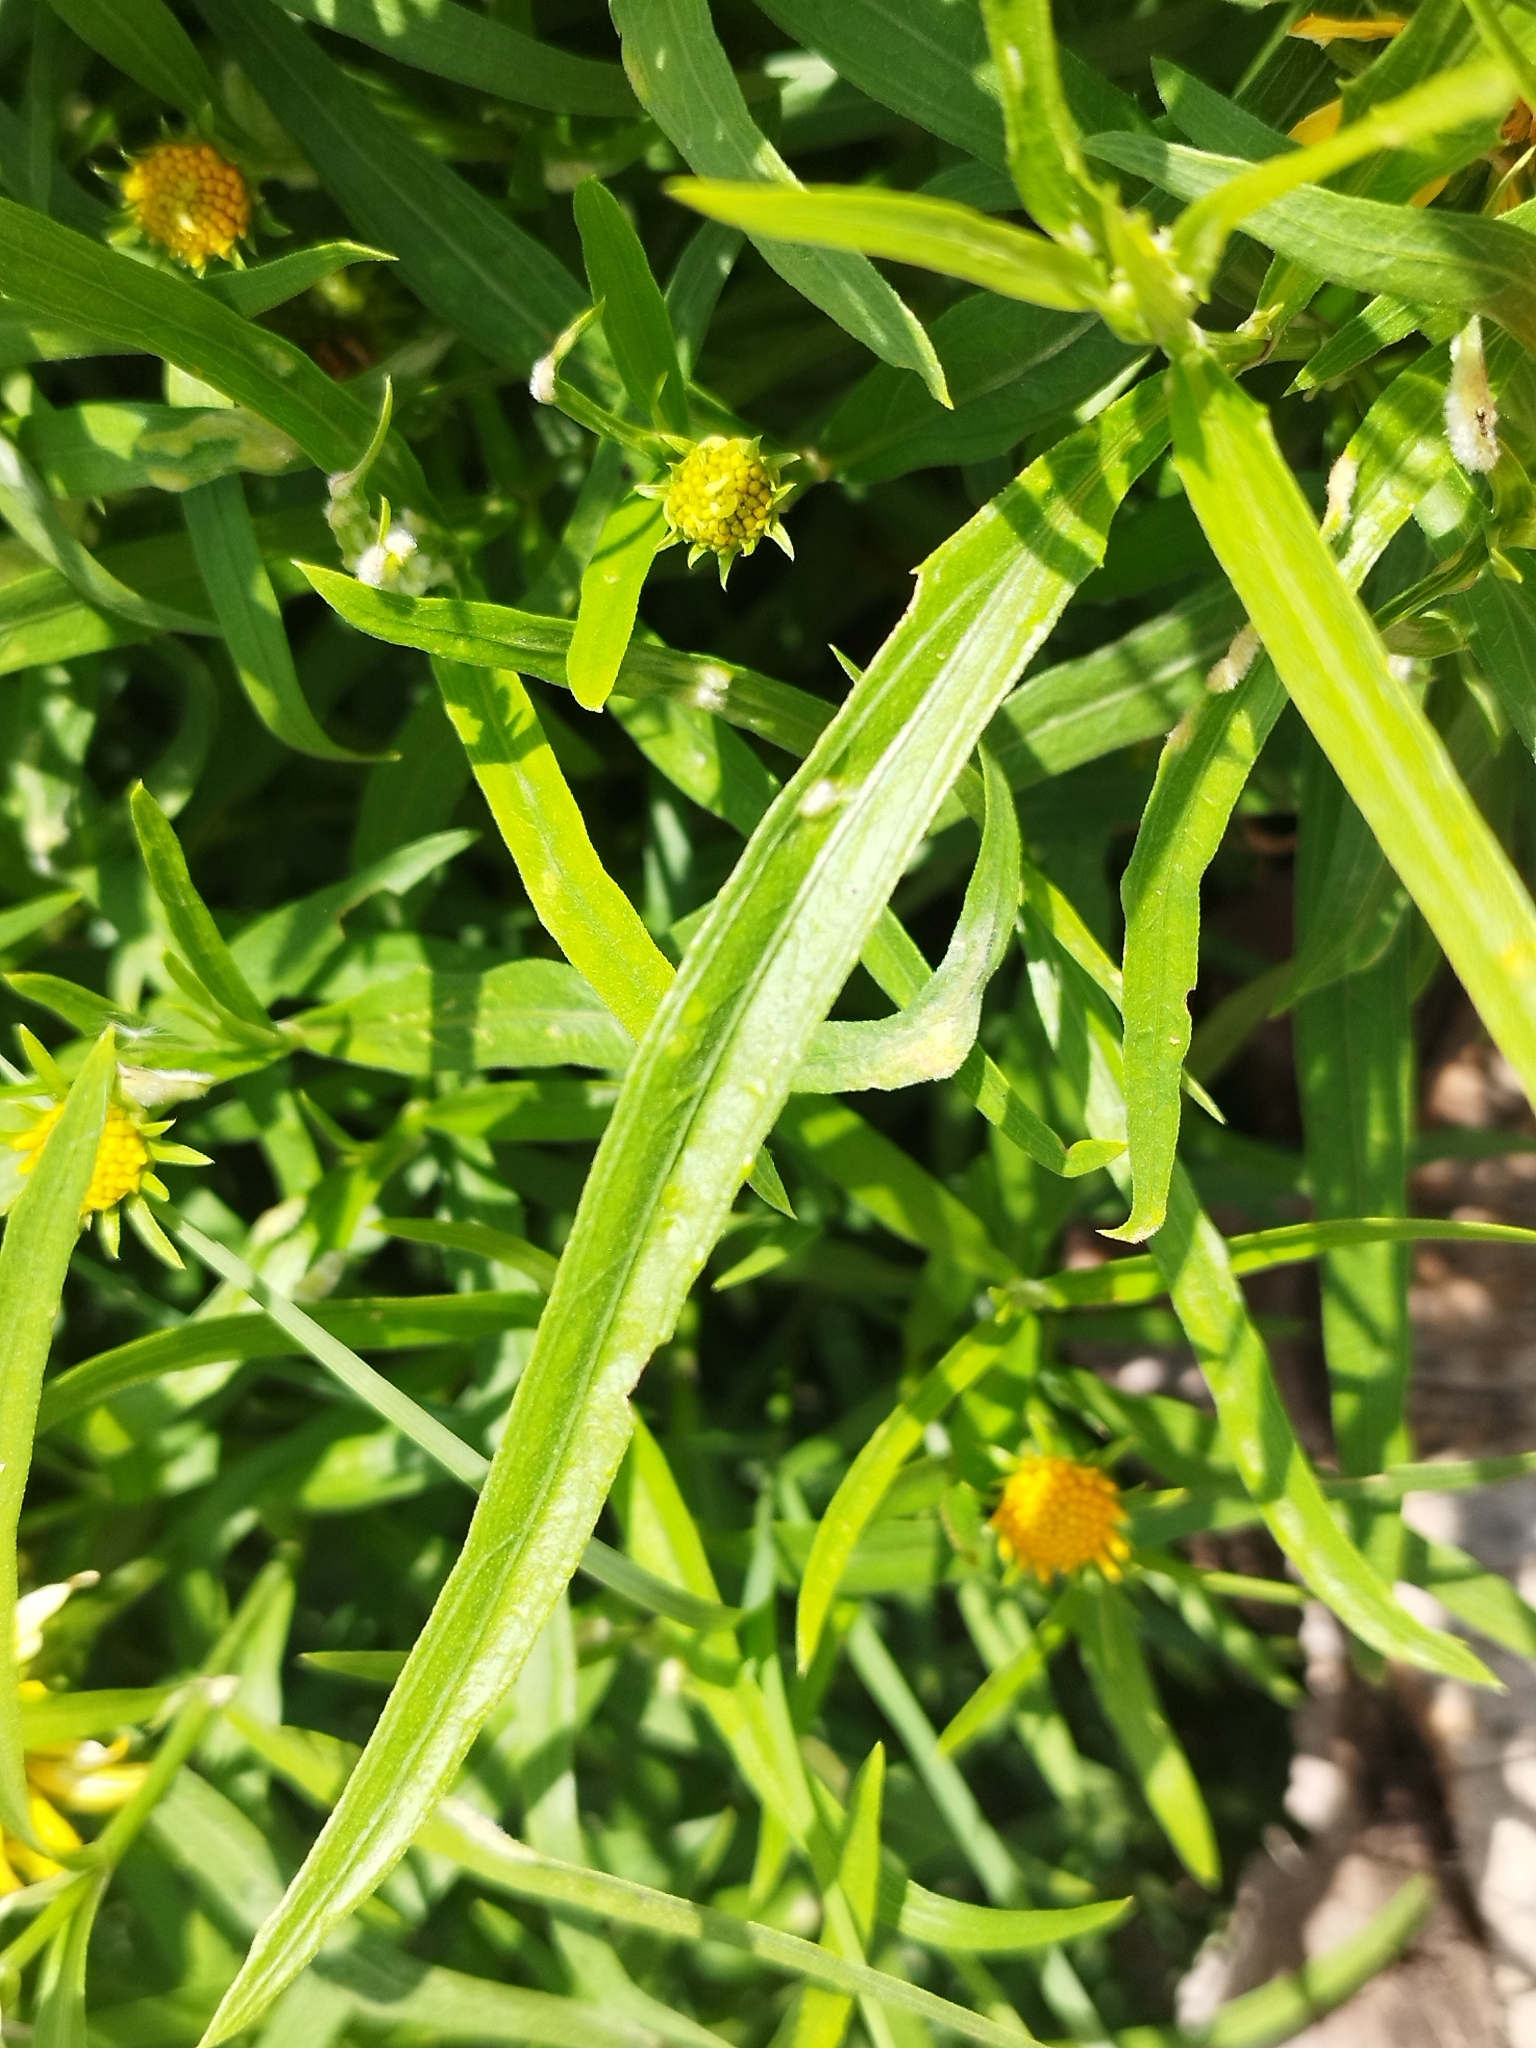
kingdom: Plantae
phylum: Tracheophyta
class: Magnoliopsida
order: Asterales
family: Asteraceae
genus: Pascalia
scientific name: Pascalia glauca
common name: Beach creeping oxeye
